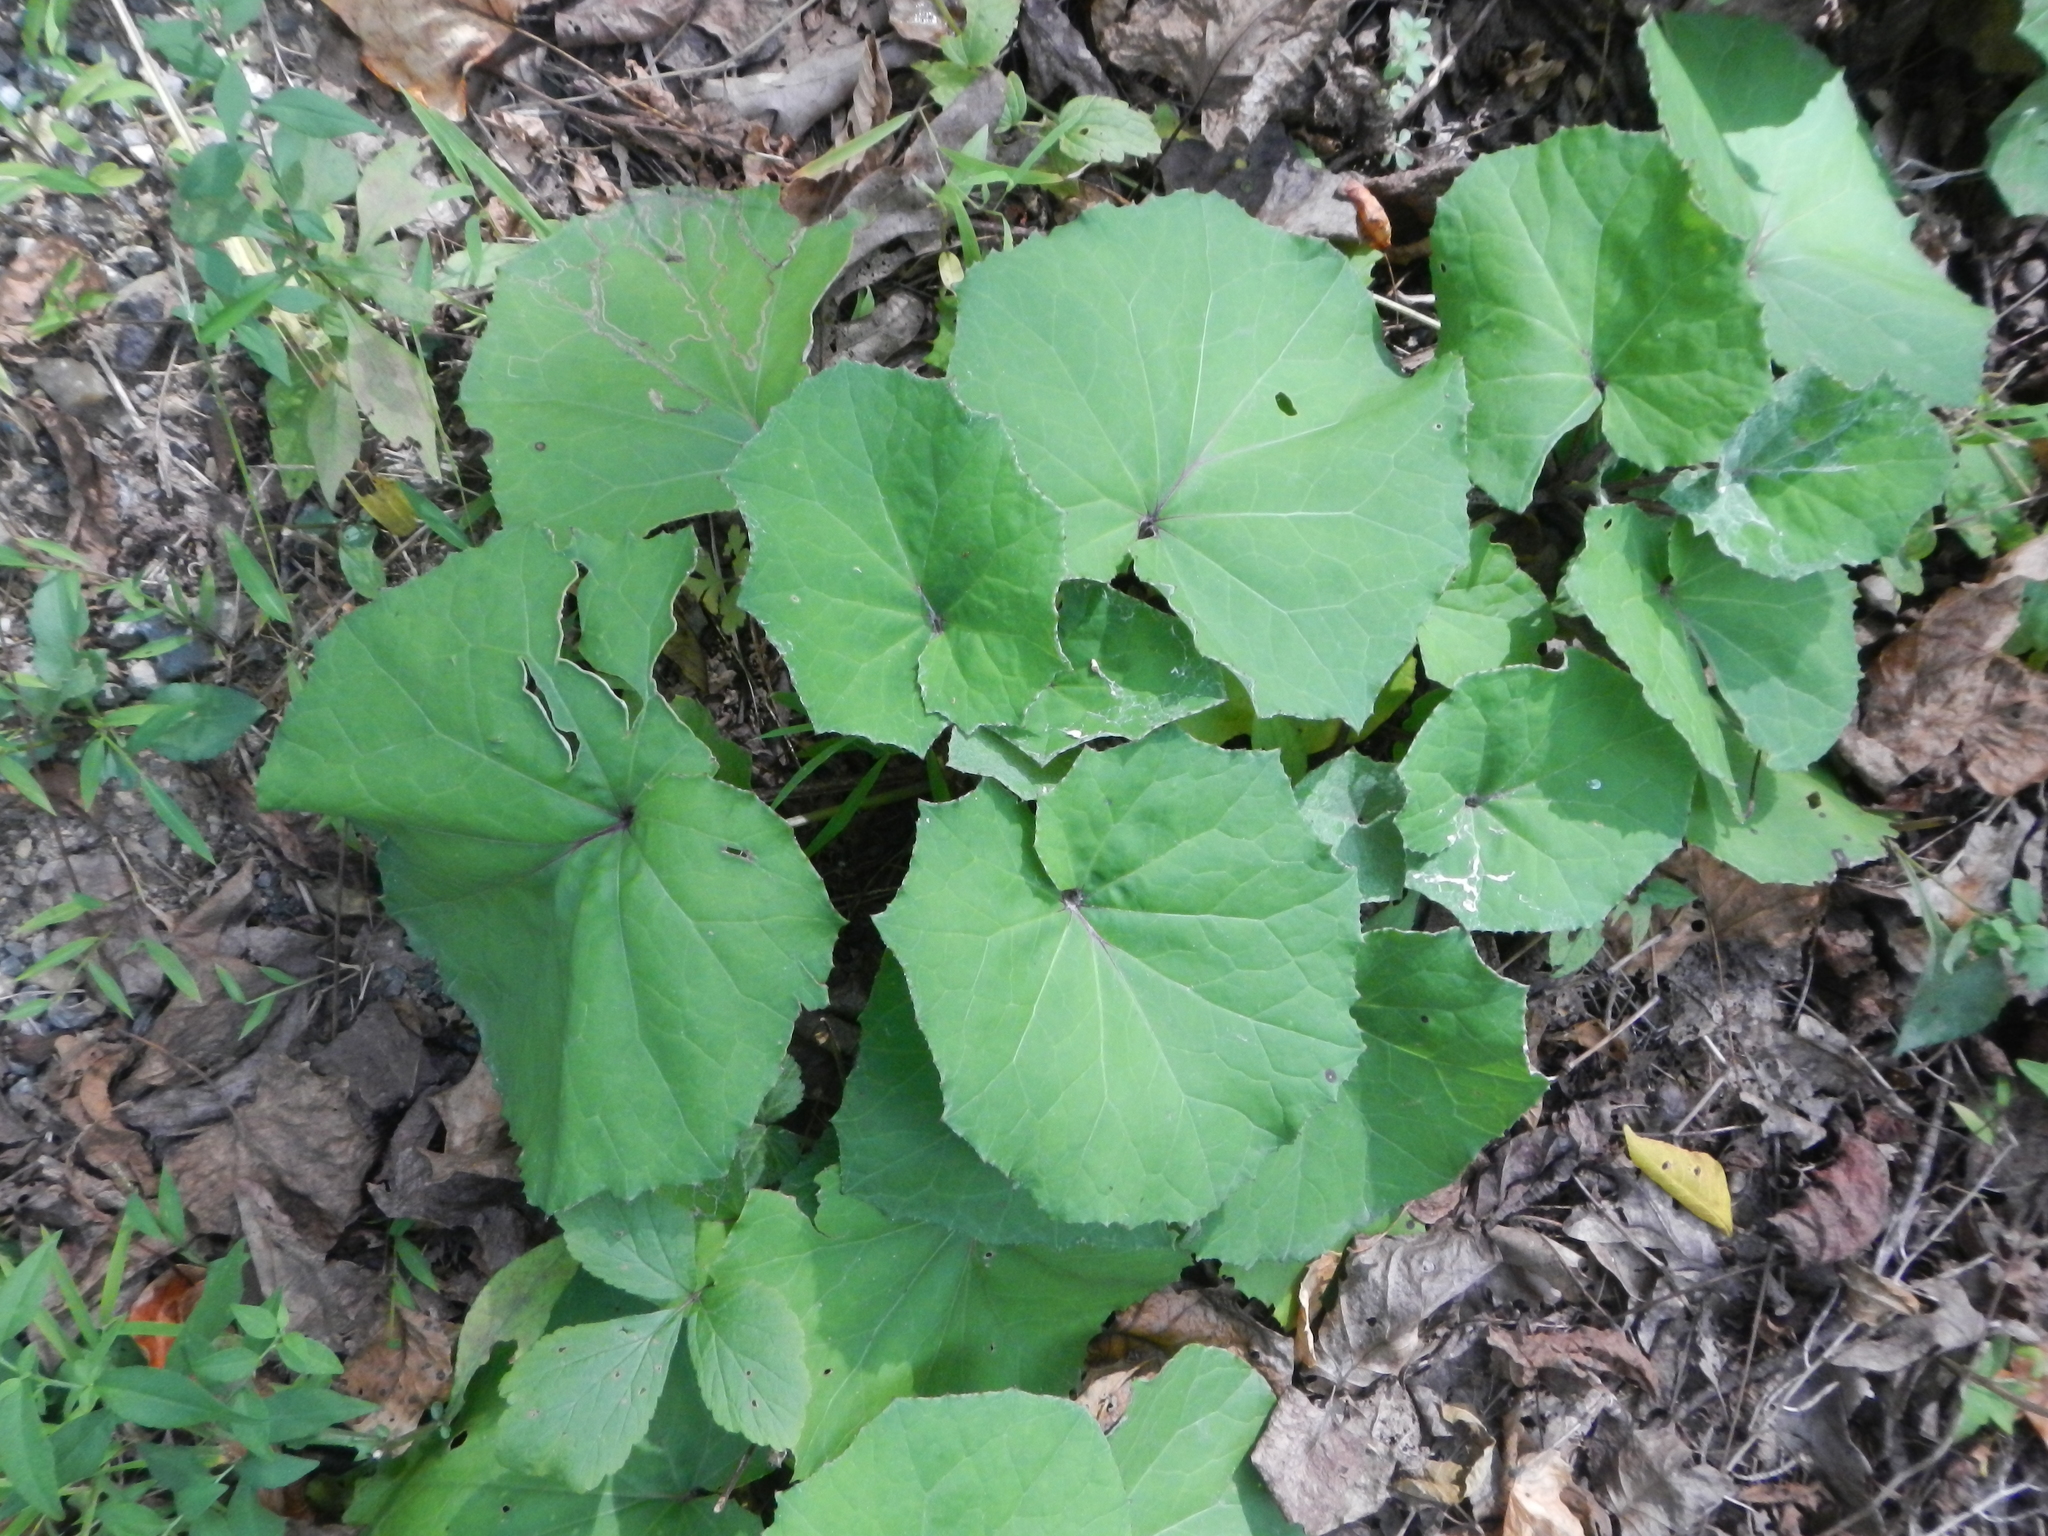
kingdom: Plantae
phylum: Tracheophyta
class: Magnoliopsida
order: Asterales
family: Asteraceae
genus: Tussilago
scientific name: Tussilago farfara
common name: Coltsfoot
